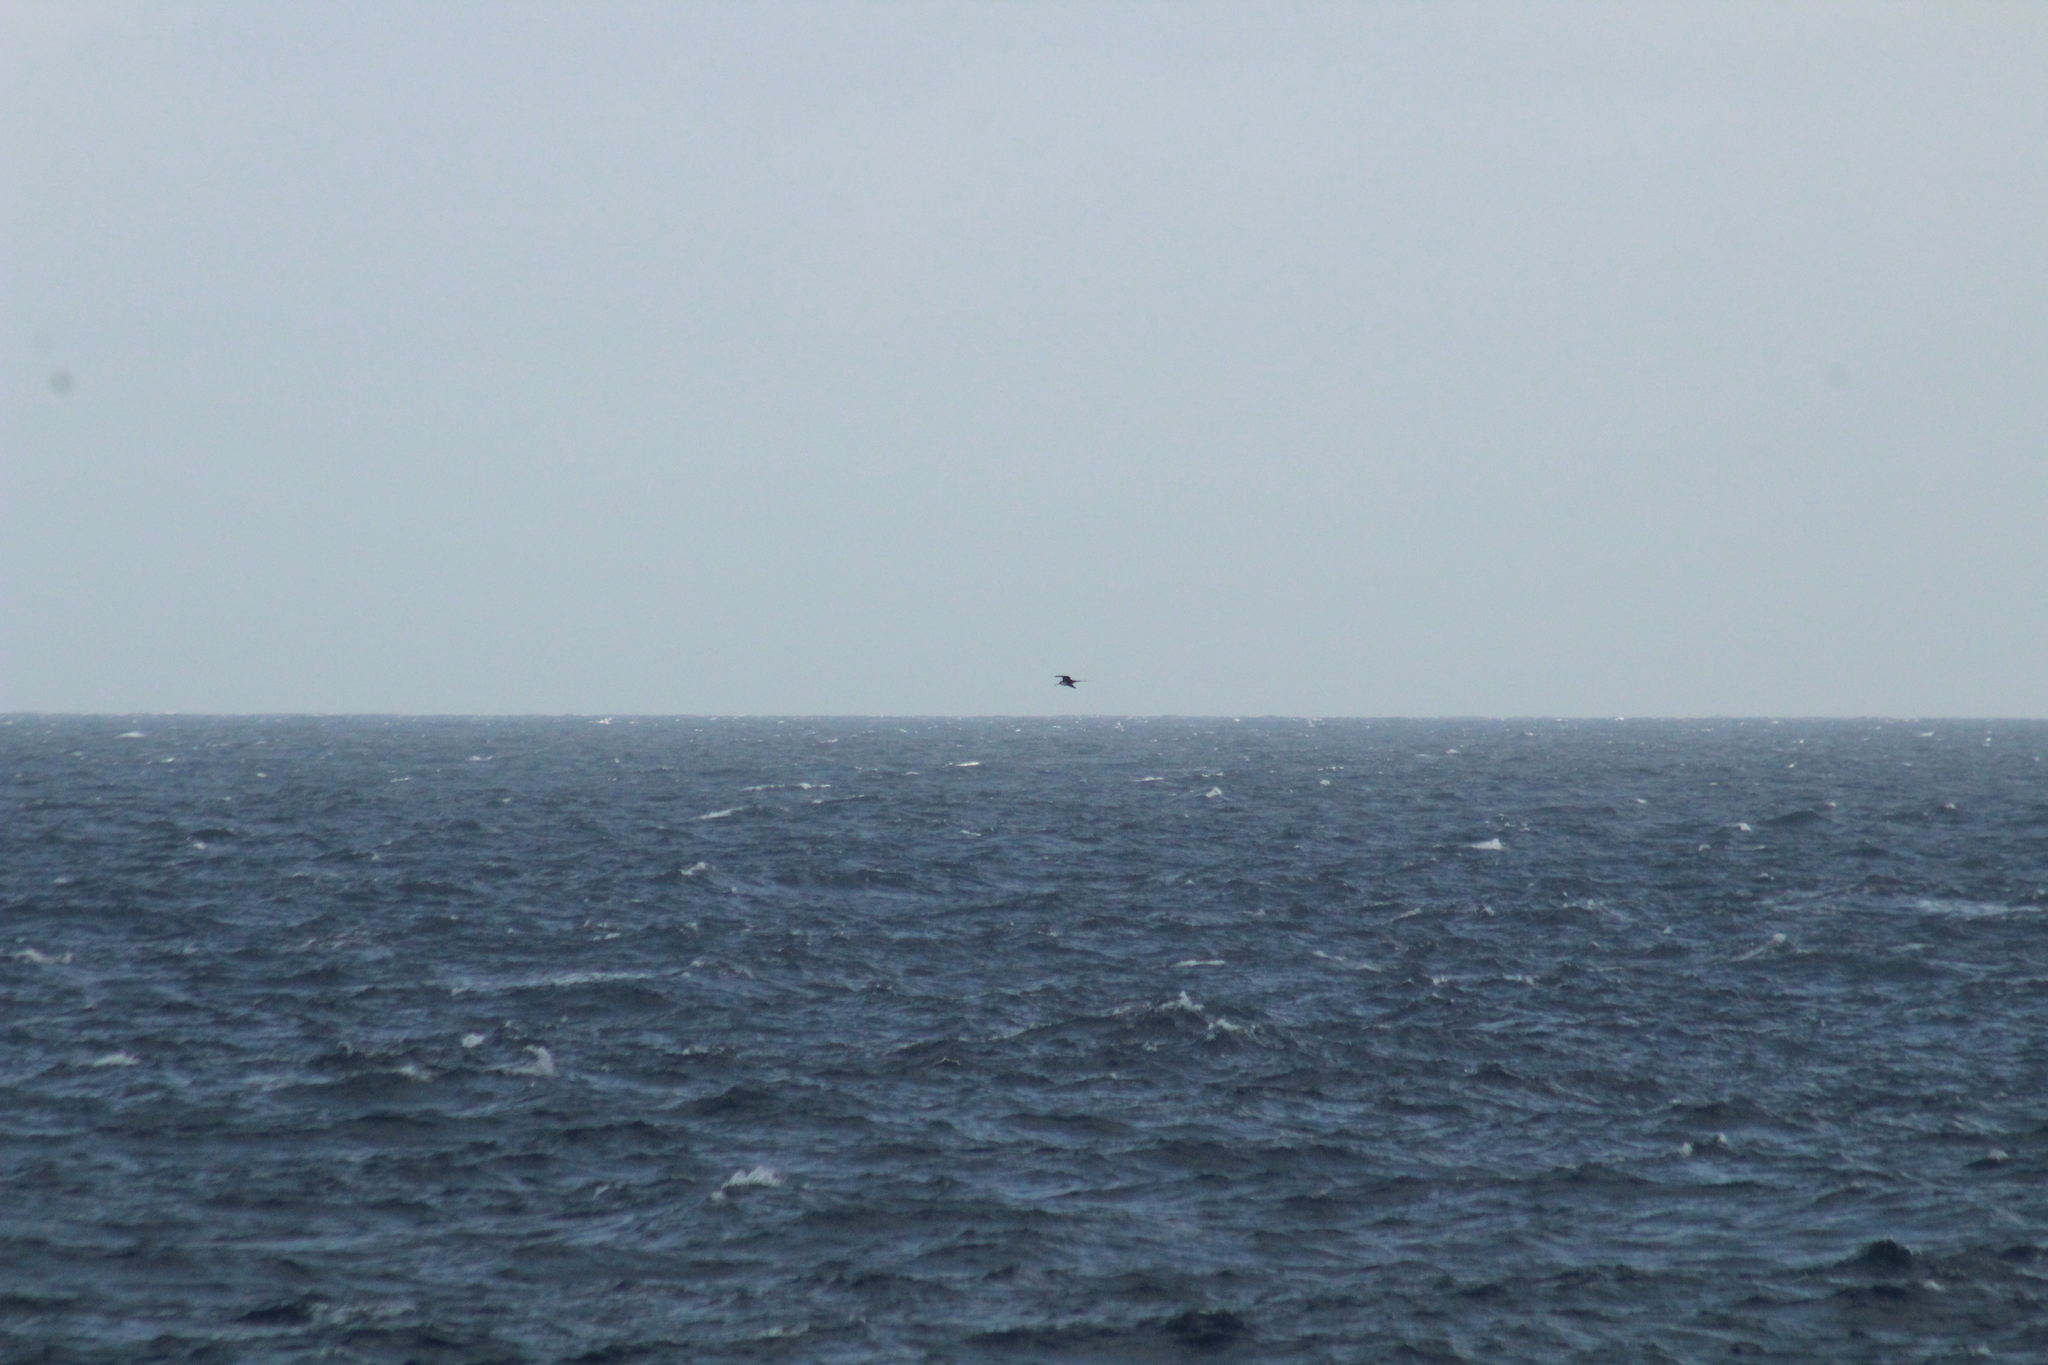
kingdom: Animalia
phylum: Chordata
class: Aves
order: Suliformes
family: Fregatidae
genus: Fregata
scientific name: Fregata magnificens
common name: Magnificent frigatebird
